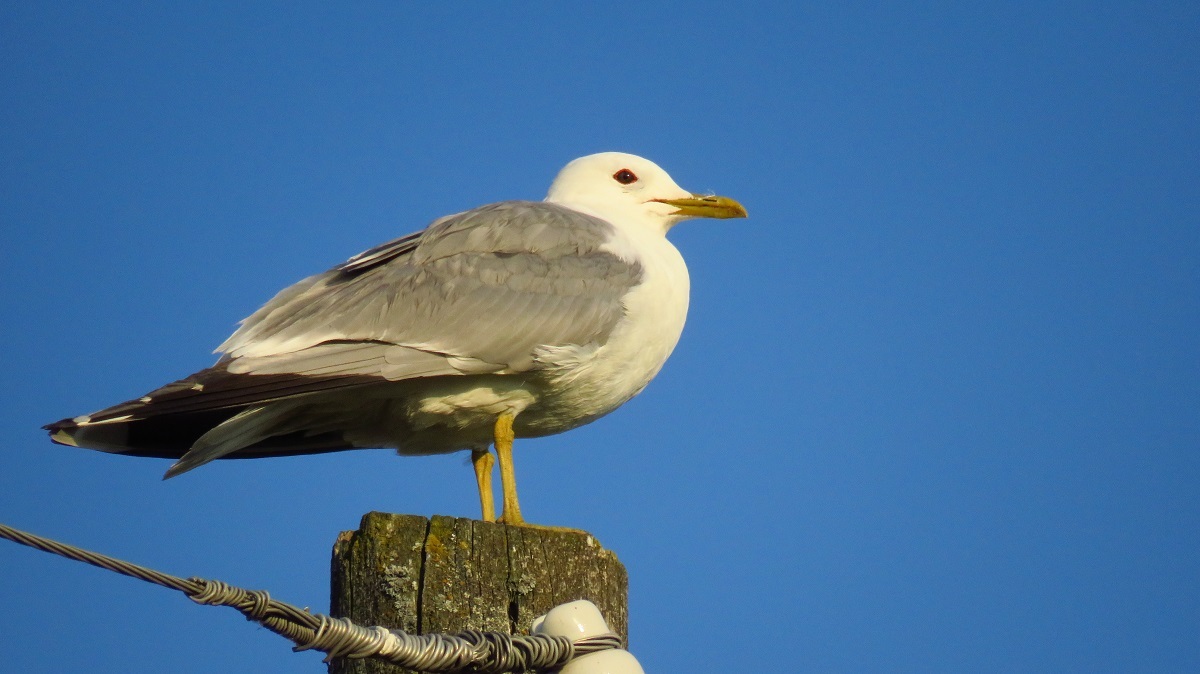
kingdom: Animalia
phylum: Chordata
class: Aves
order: Charadriiformes
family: Laridae
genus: Larus
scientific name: Larus canus
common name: Mew gull
